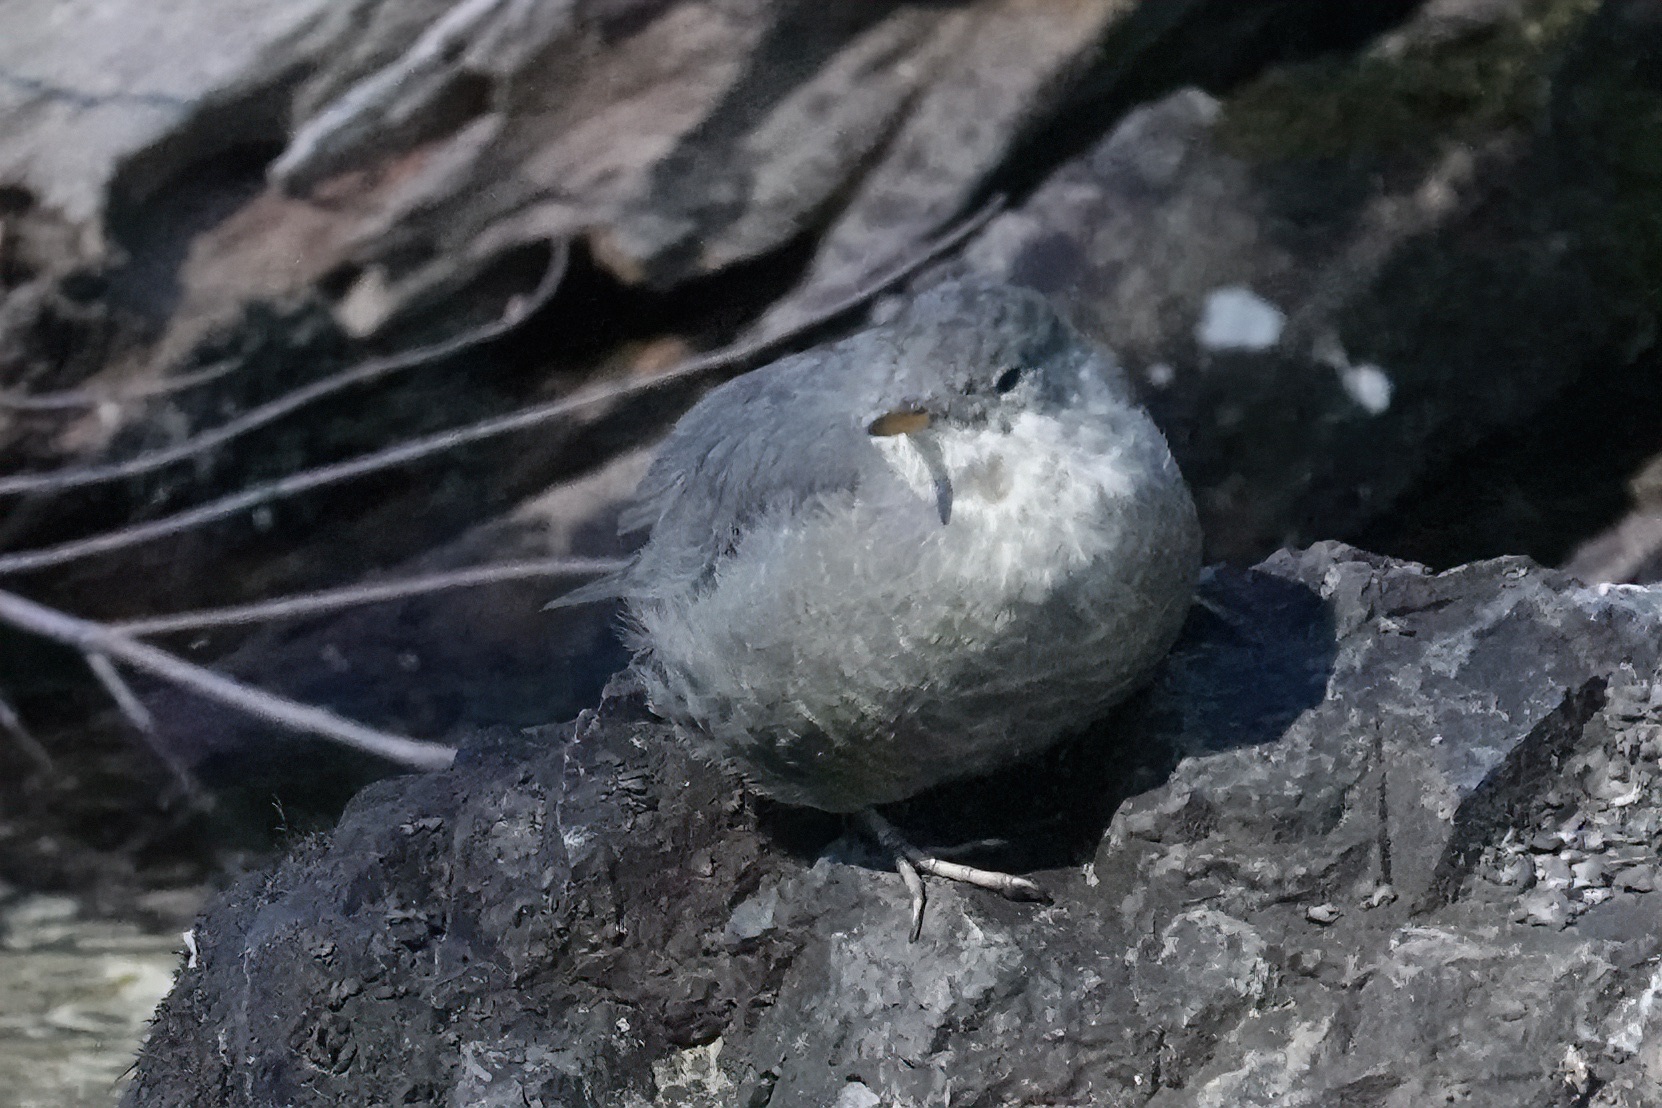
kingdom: Animalia
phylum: Chordata
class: Aves
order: Passeriformes
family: Cinclidae
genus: Cinclus
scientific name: Cinclus mexicanus
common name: American dipper
